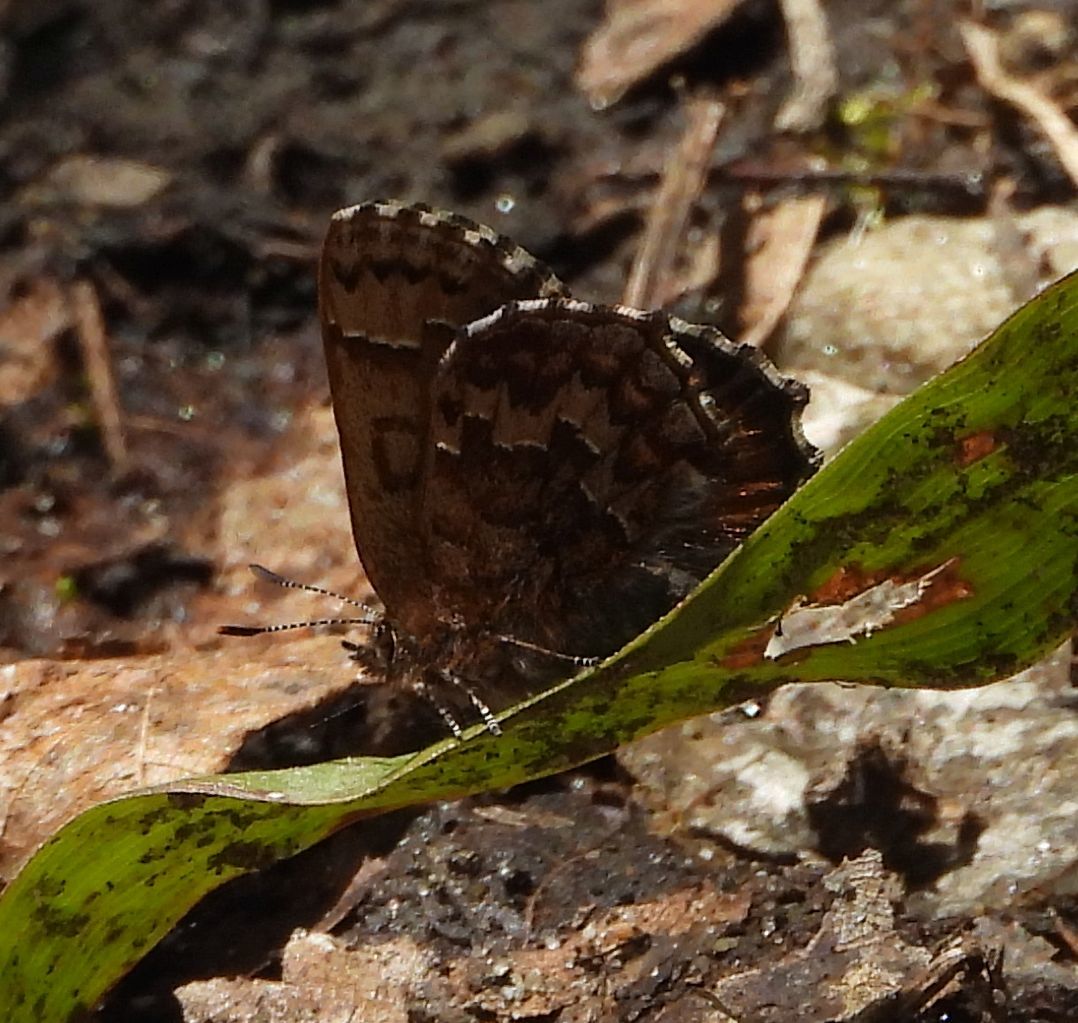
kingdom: Animalia
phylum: Arthropoda
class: Insecta
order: Lepidoptera
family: Lycaenidae
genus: Incisalia
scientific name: Incisalia niphon
